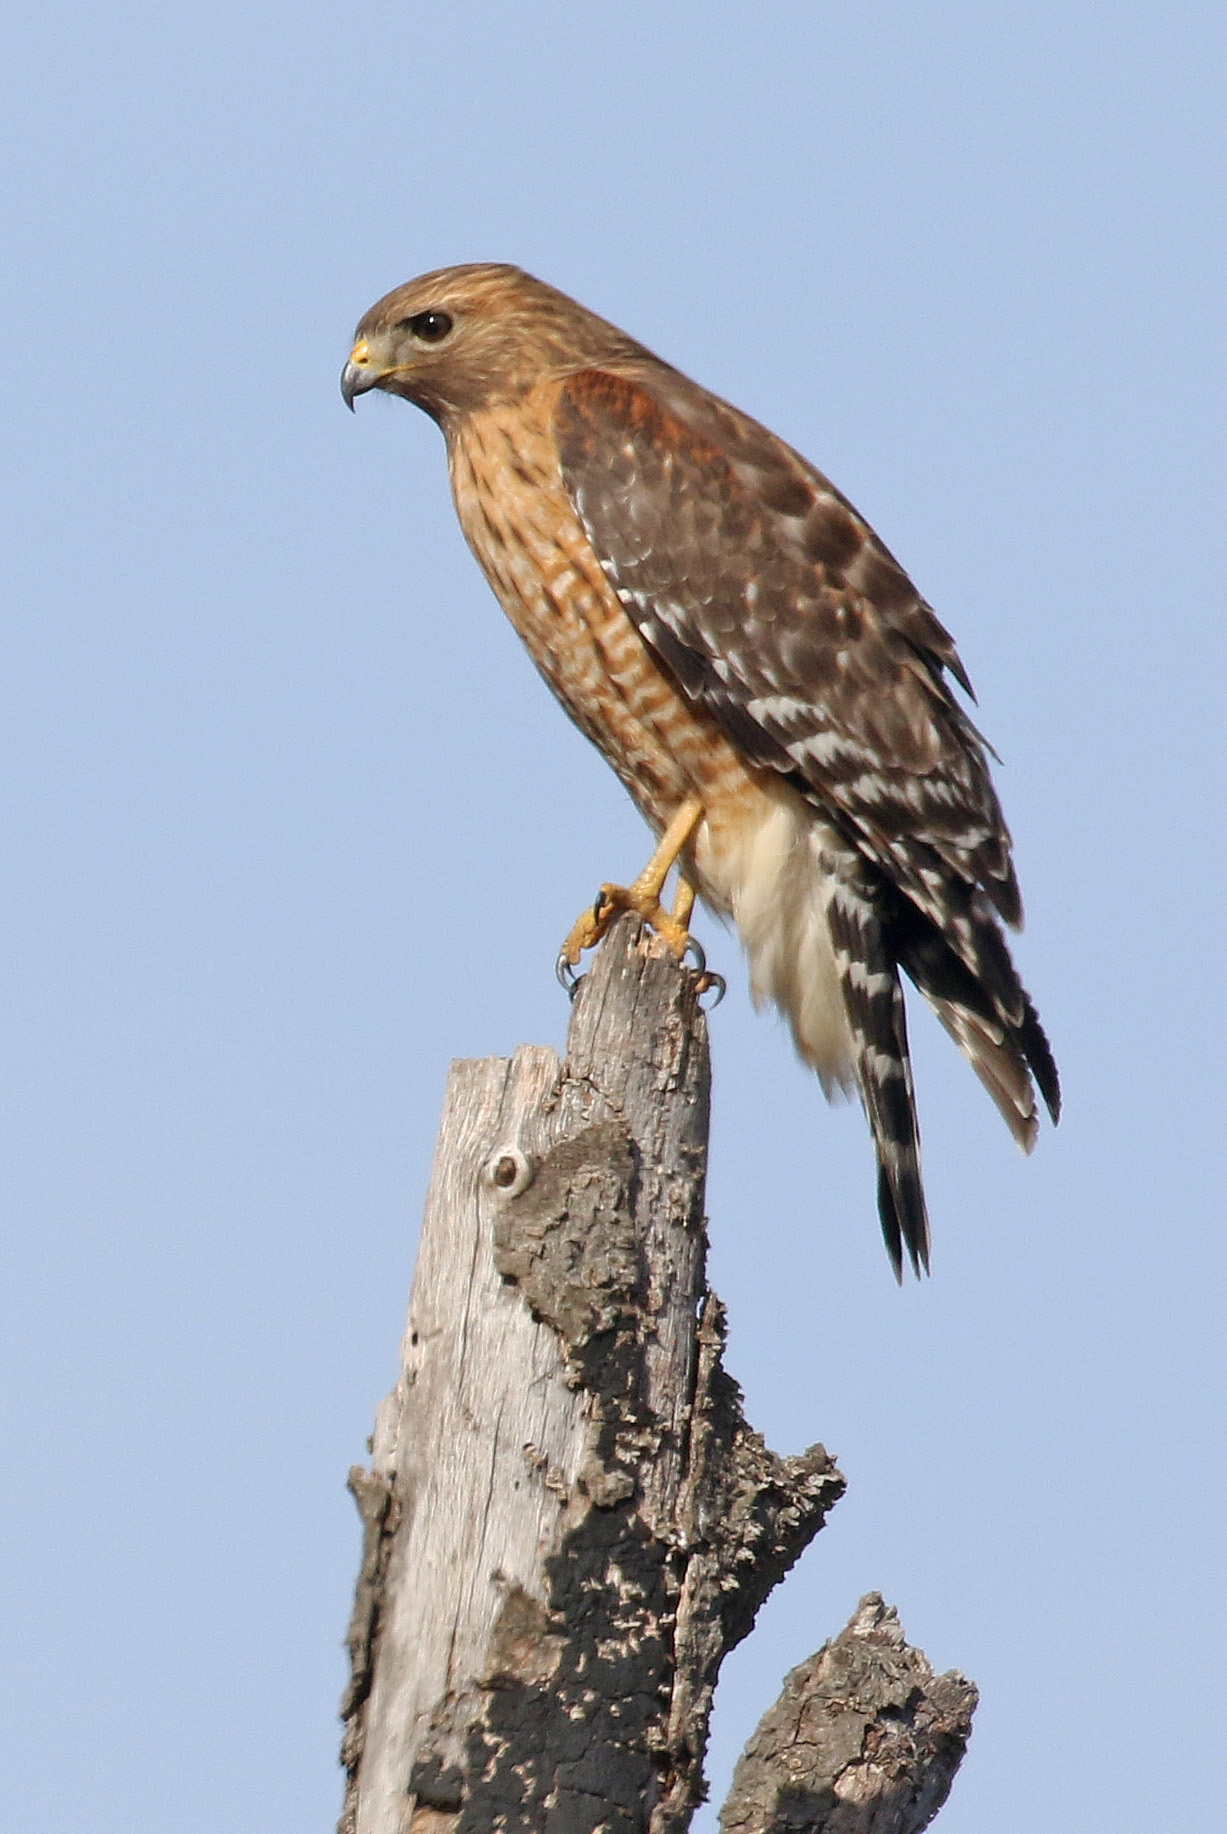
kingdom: Animalia
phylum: Chordata
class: Aves
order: Accipitriformes
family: Accipitridae
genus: Buteo
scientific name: Buteo lineatus
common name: Red-shouldered hawk
